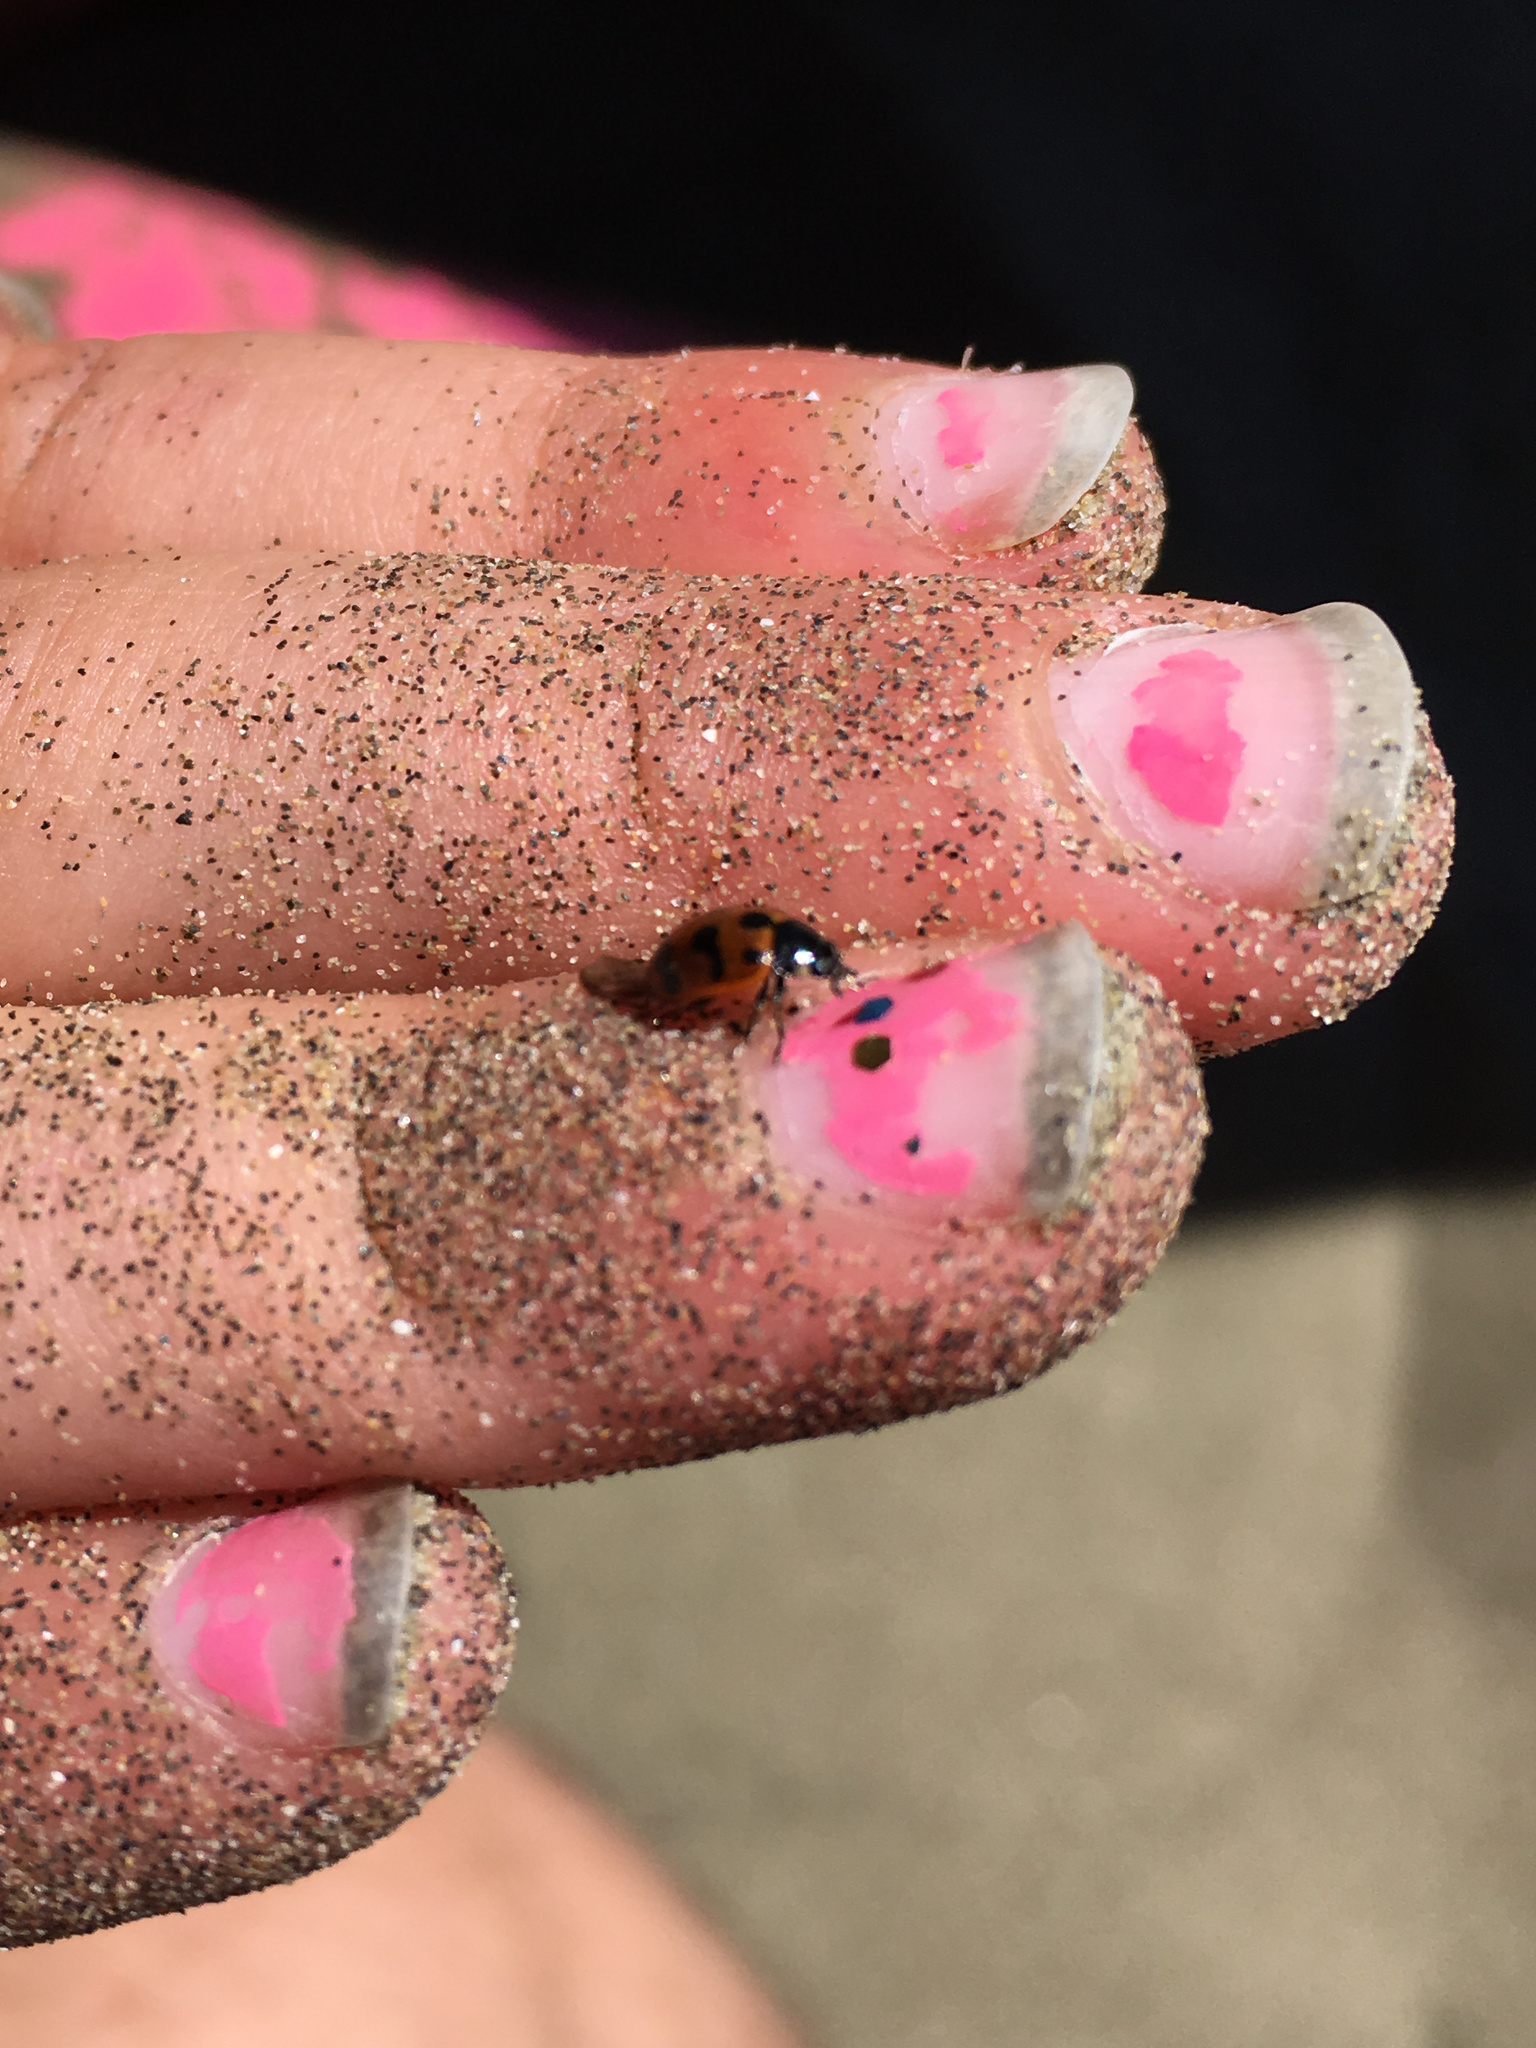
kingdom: Animalia
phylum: Arthropoda
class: Insecta
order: Coleoptera
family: Coccinellidae
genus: Coccinella
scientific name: Coccinella undecimpunctata
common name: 11-spot ladybird
